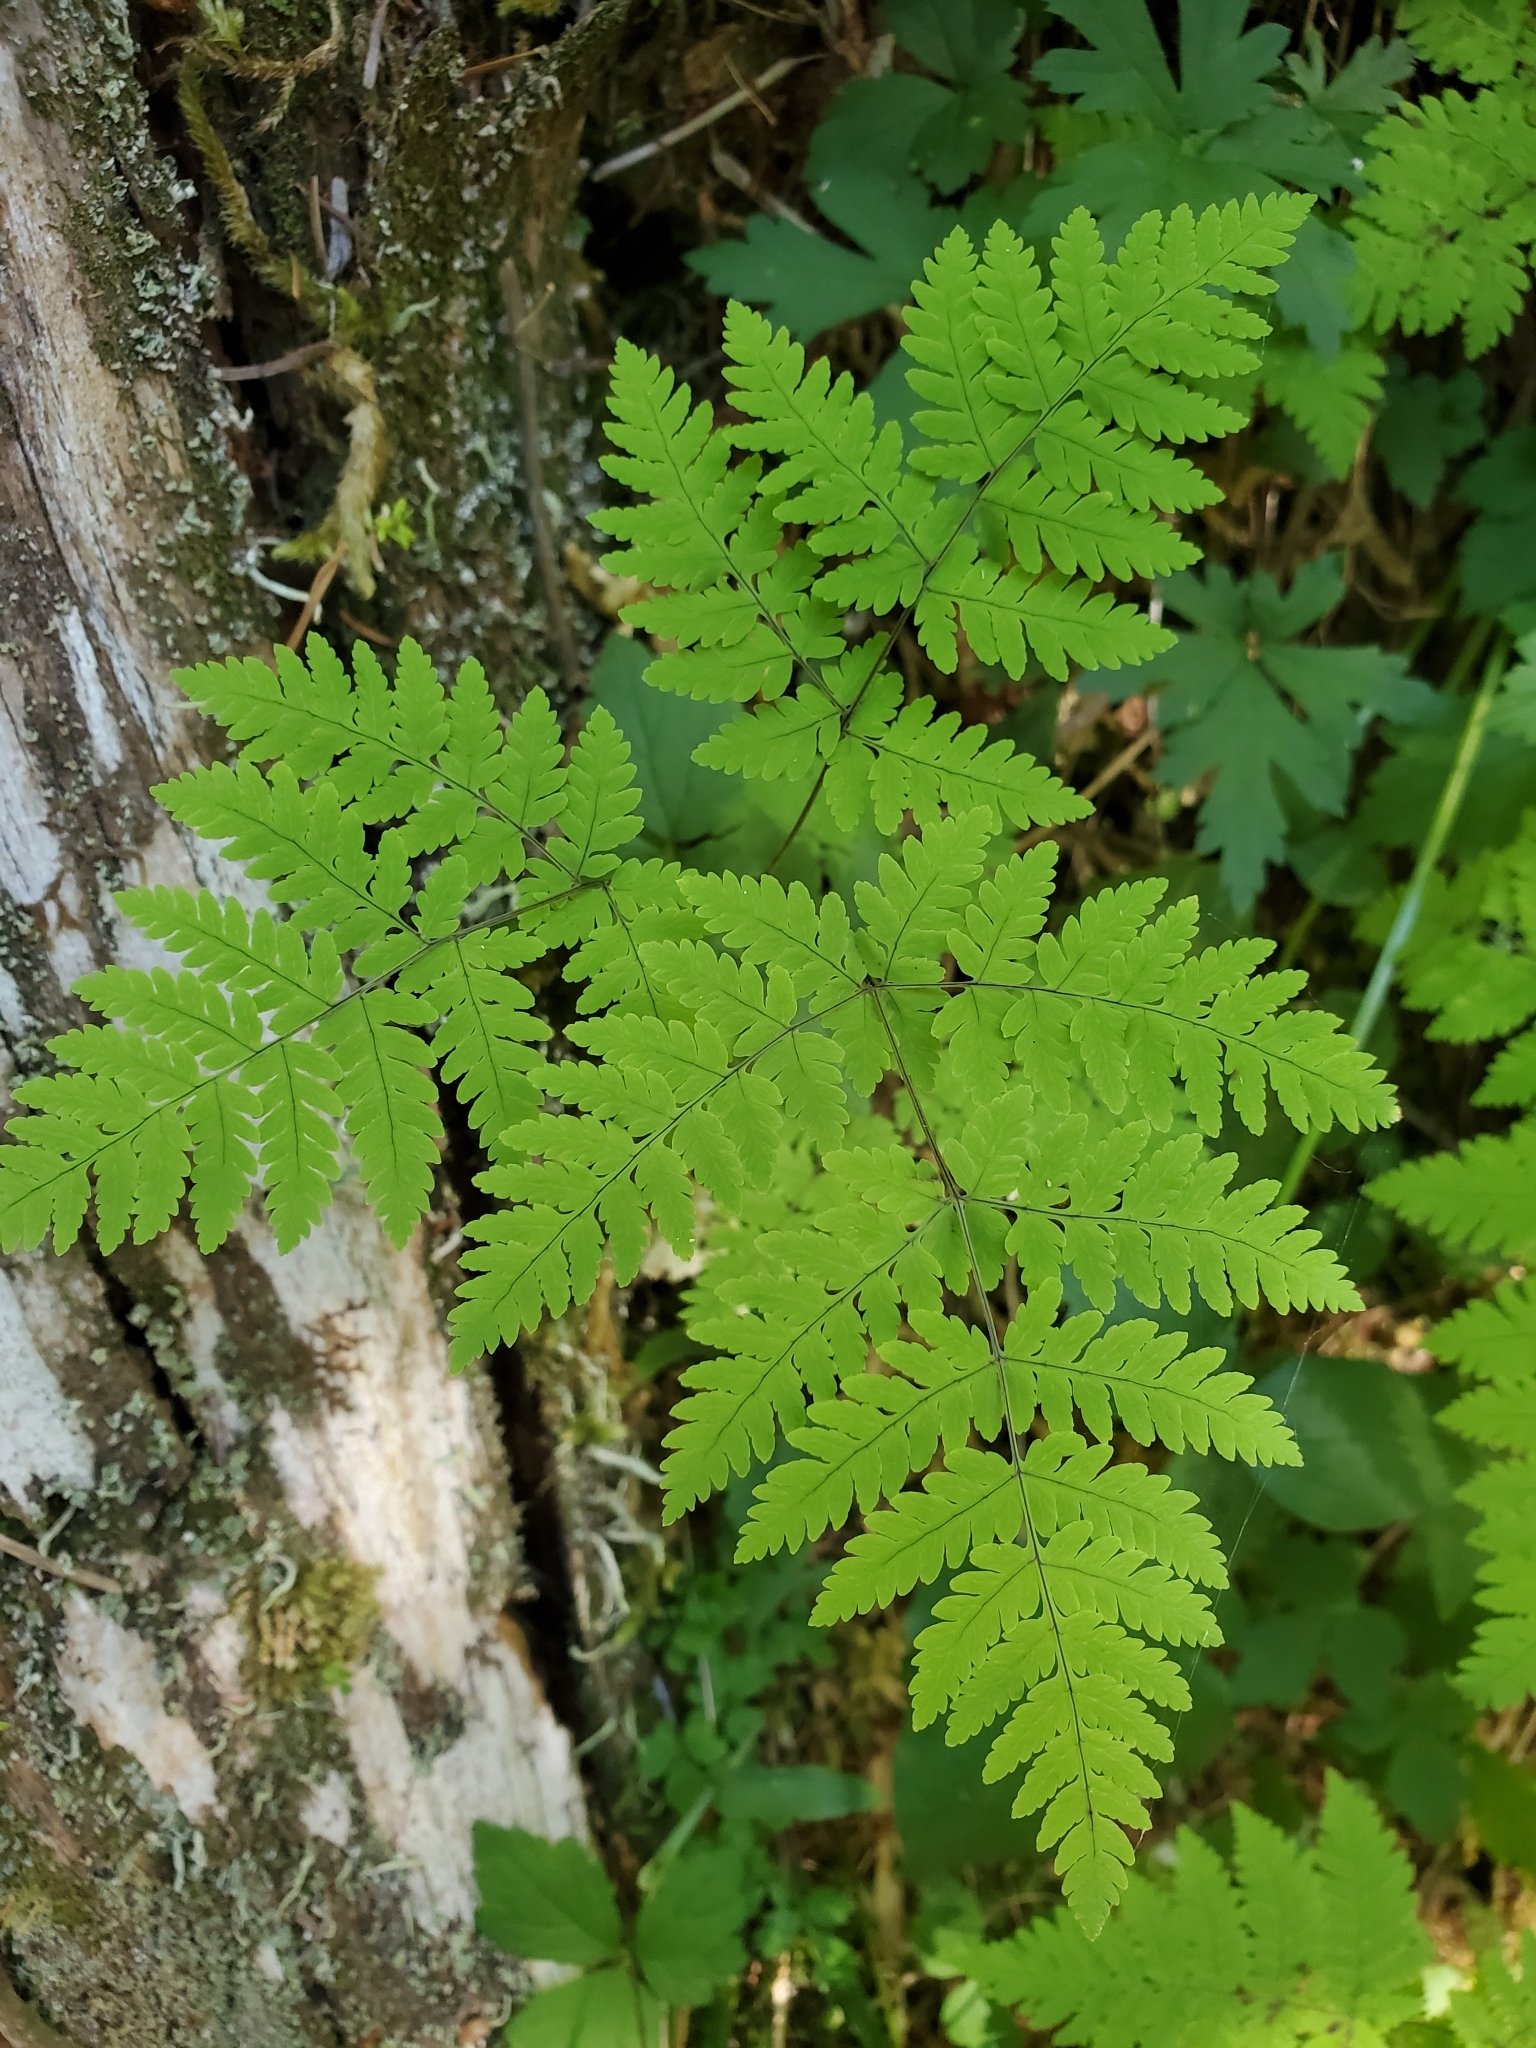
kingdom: Plantae
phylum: Tracheophyta
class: Polypodiopsida
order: Polypodiales
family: Cystopteridaceae
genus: Gymnocarpium
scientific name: Gymnocarpium disjunctum
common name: Western oak fern
